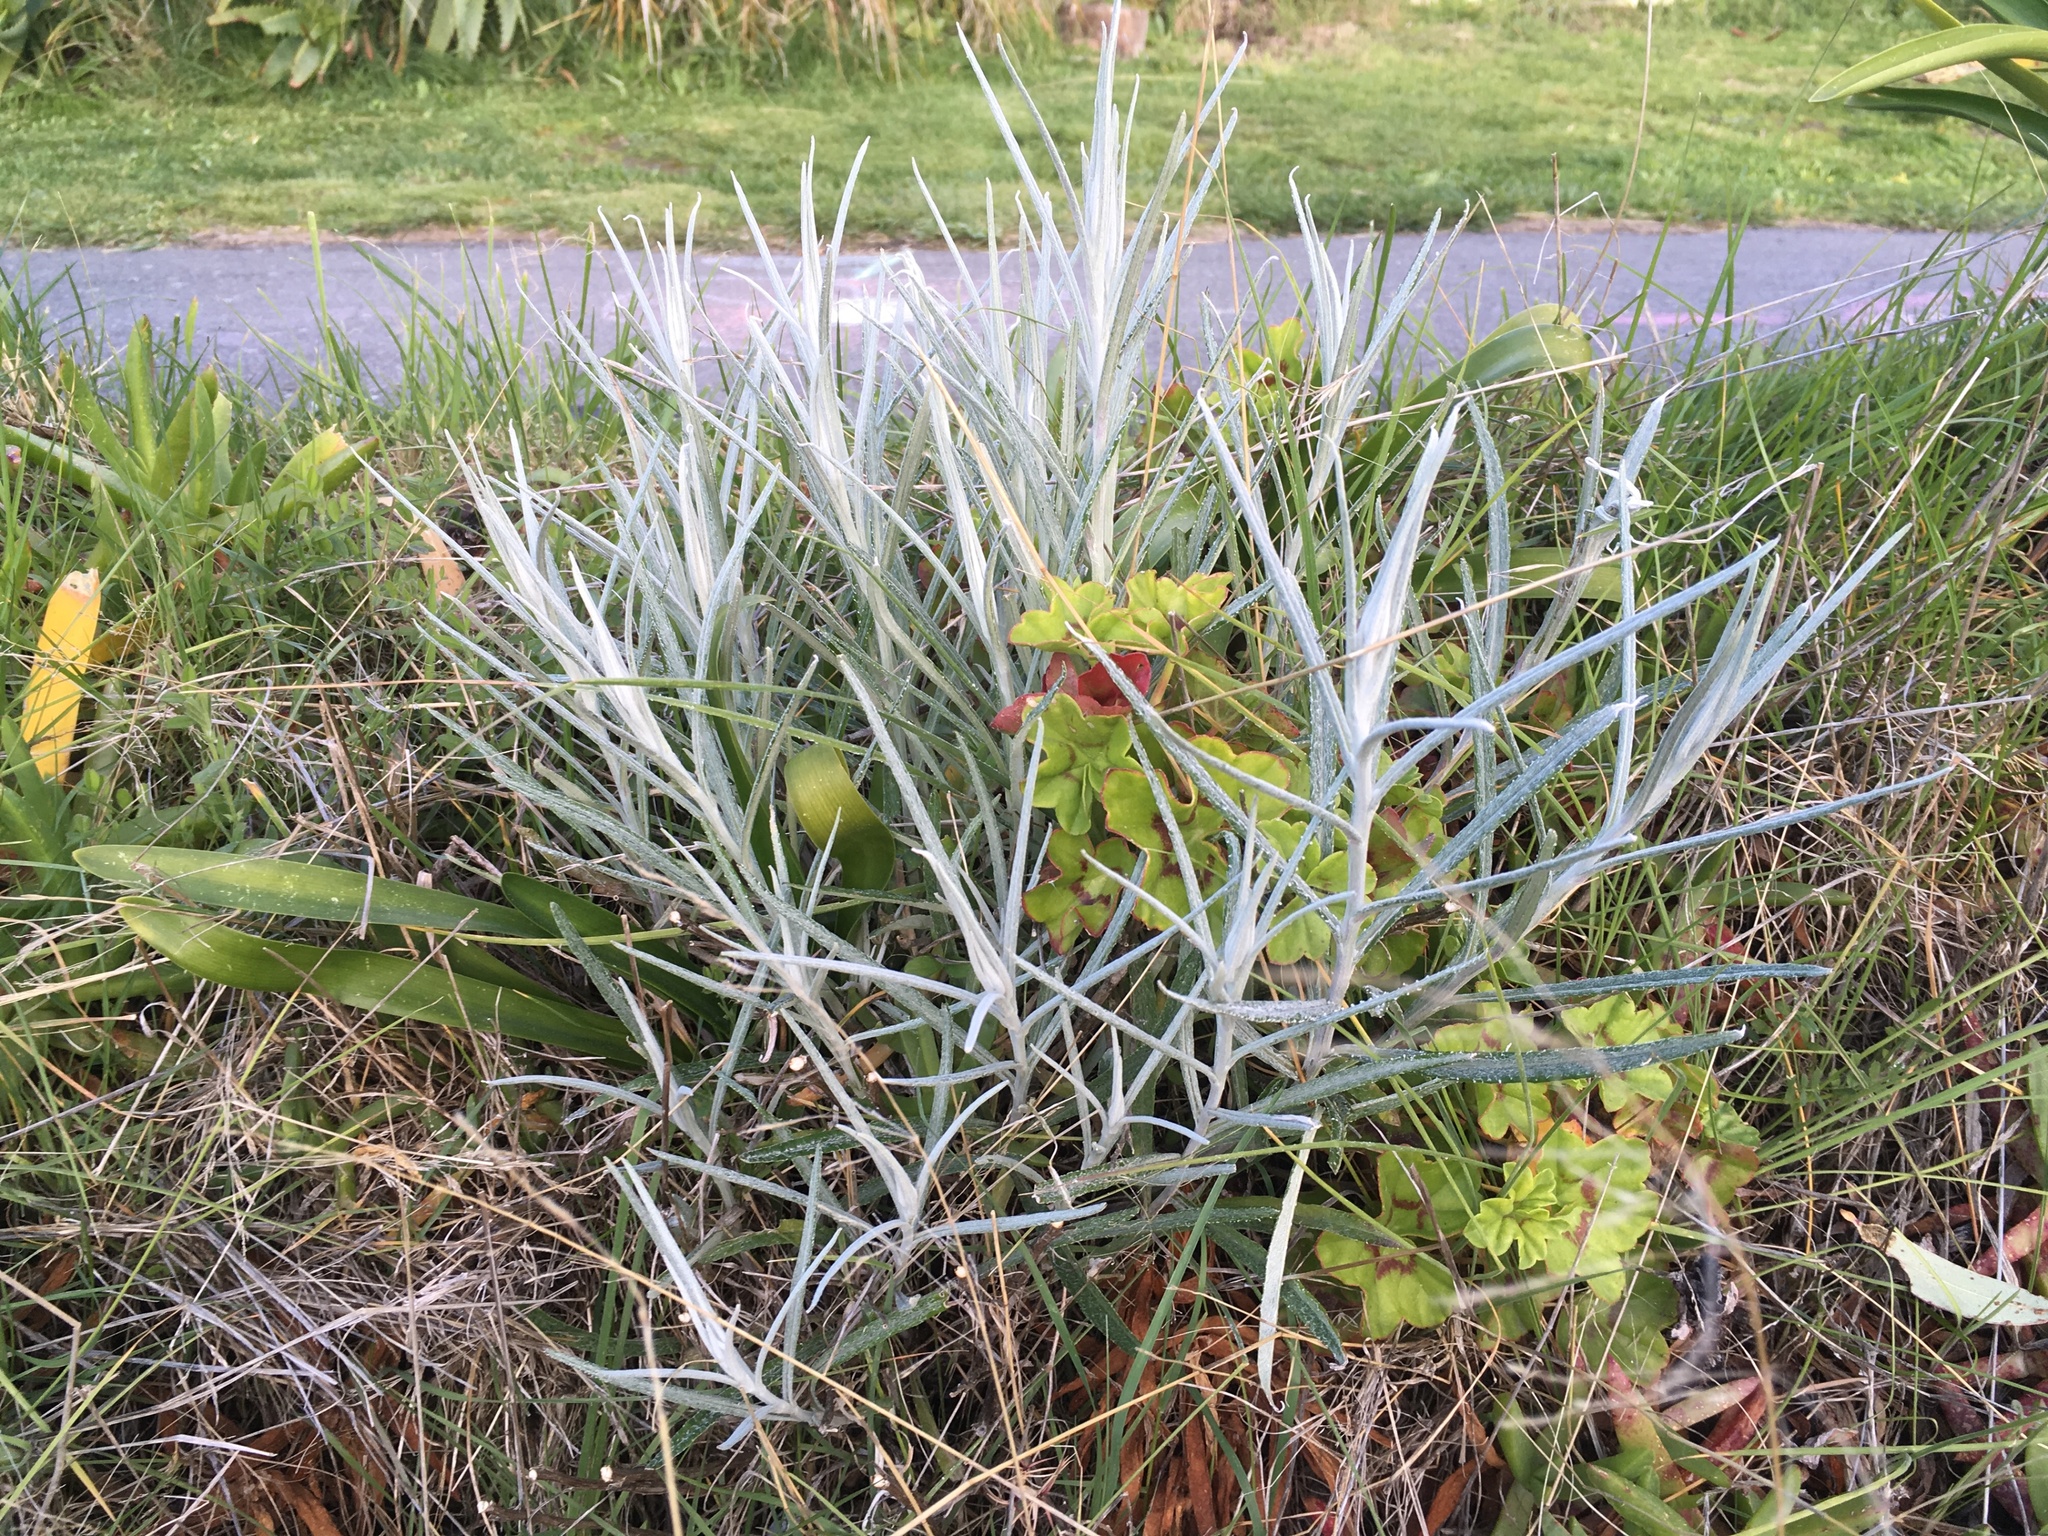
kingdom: Plantae
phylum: Tracheophyta
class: Magnoliopsida
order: Asterales
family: Asteraceae
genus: Senecio
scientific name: Senecio quadridentatus
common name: Cotton fireweed
